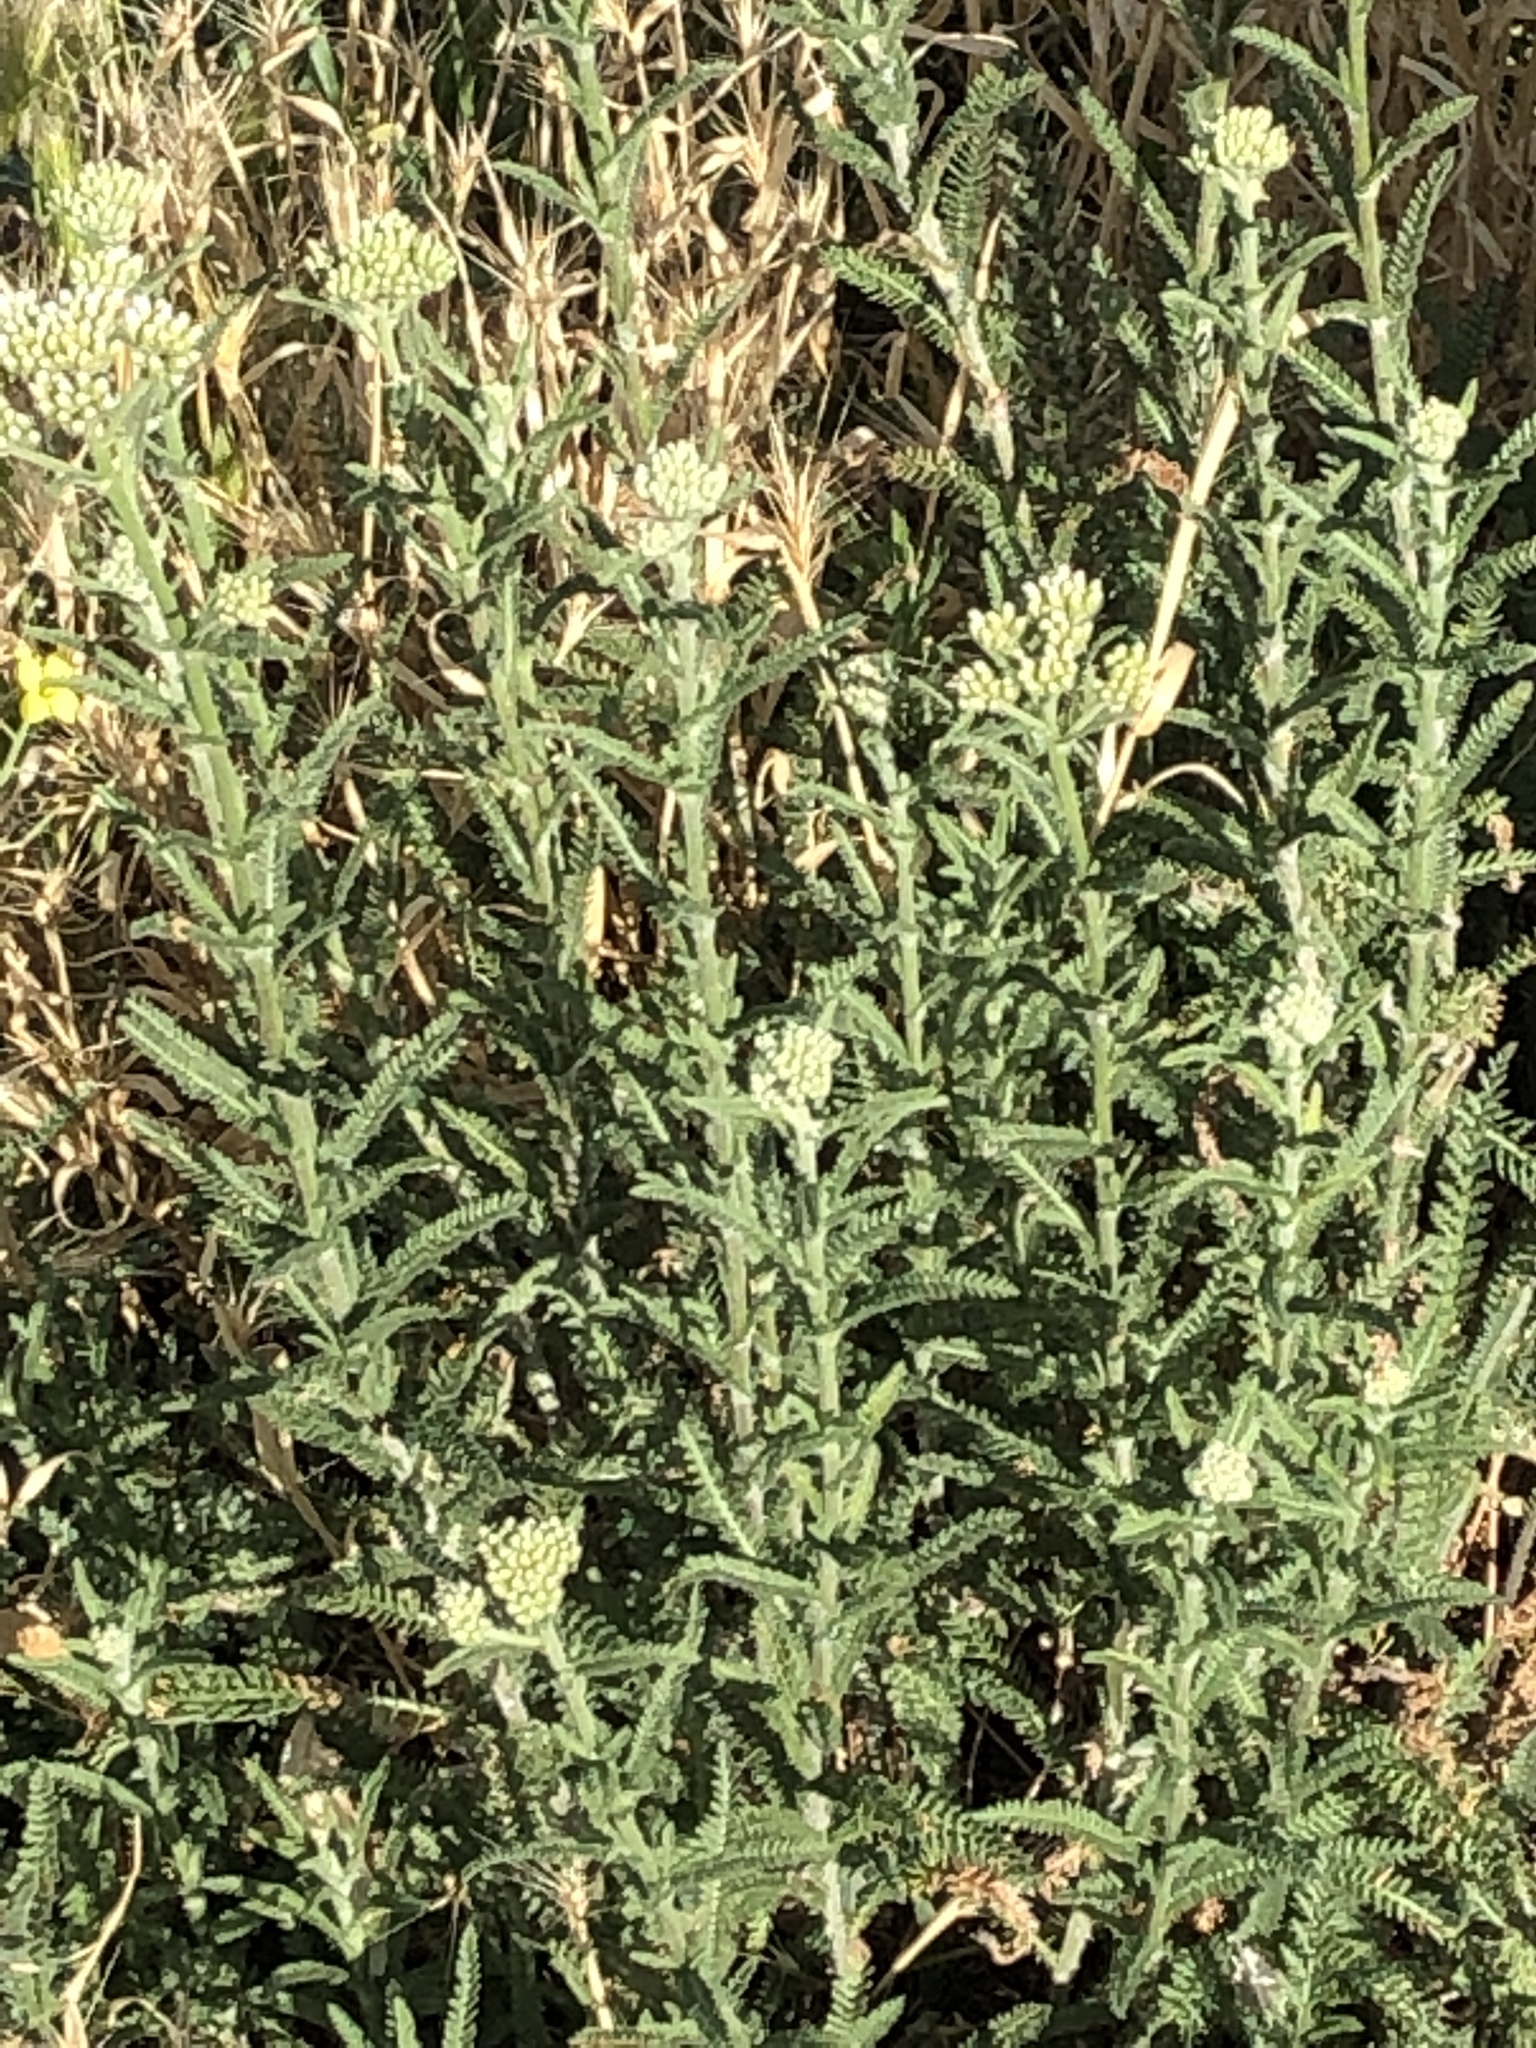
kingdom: Plantae
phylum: Tracheophyta
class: Magnoliopsida
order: Asterales
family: Asteraceae
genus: Achillea
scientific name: Achillea millefolium
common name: Yarrow
